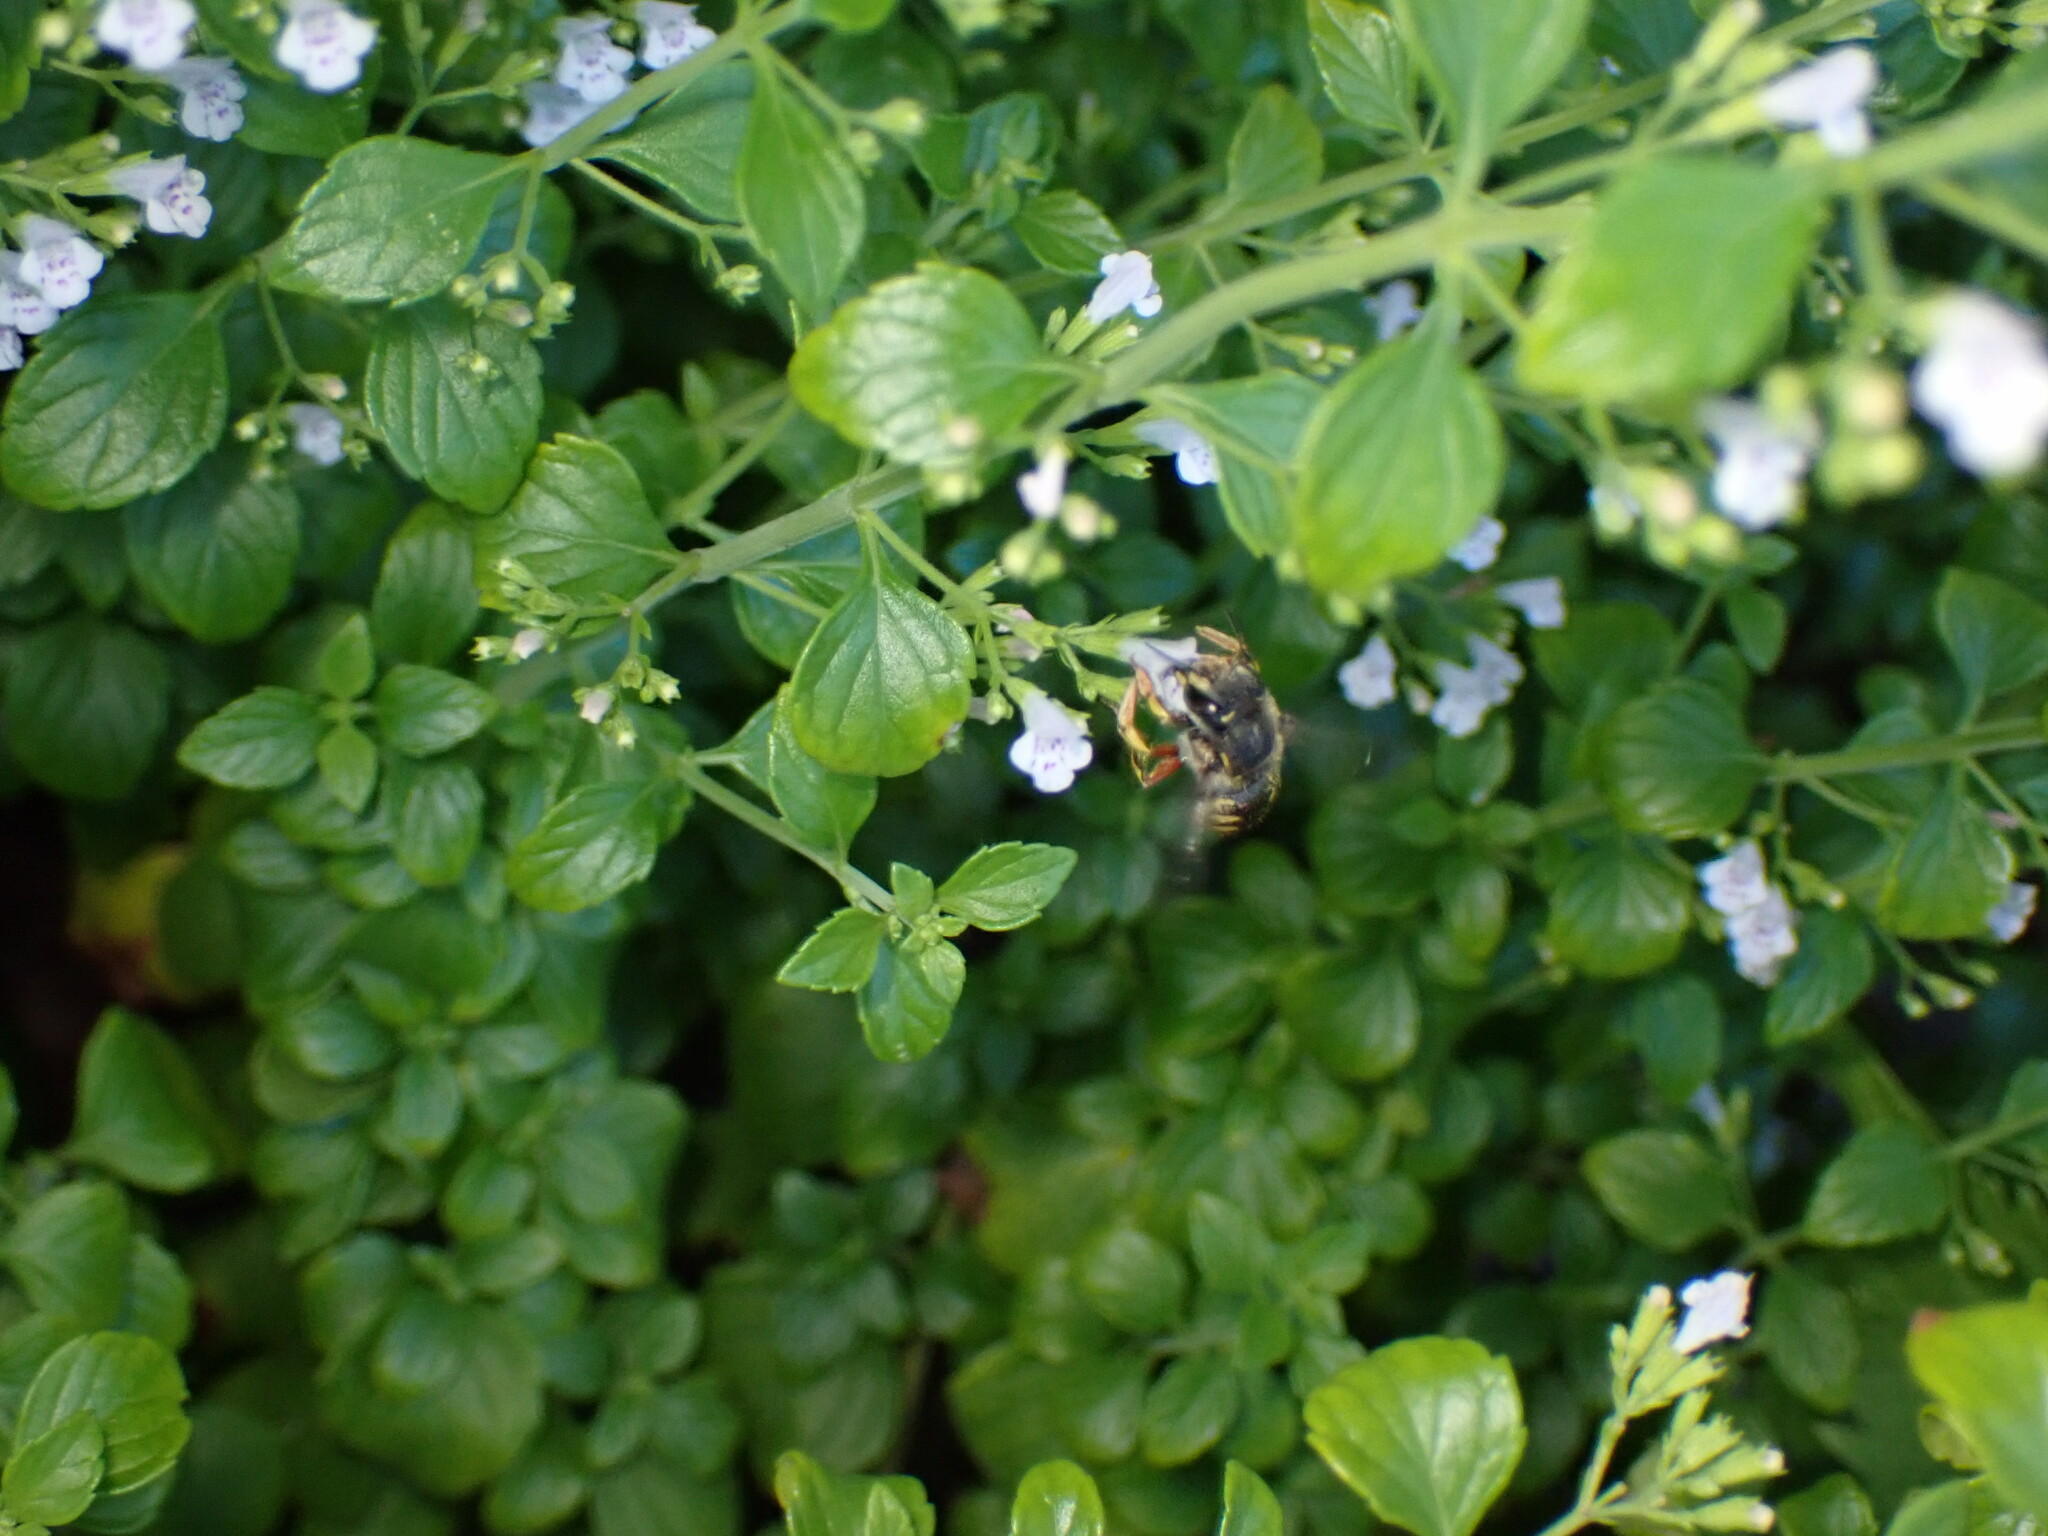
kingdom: Animalia
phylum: Arthropoda
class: Insecta
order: Hymenoptera
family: Megachilidae
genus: Anthidium
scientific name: Anthidium manicatum
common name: Wool carder bee
